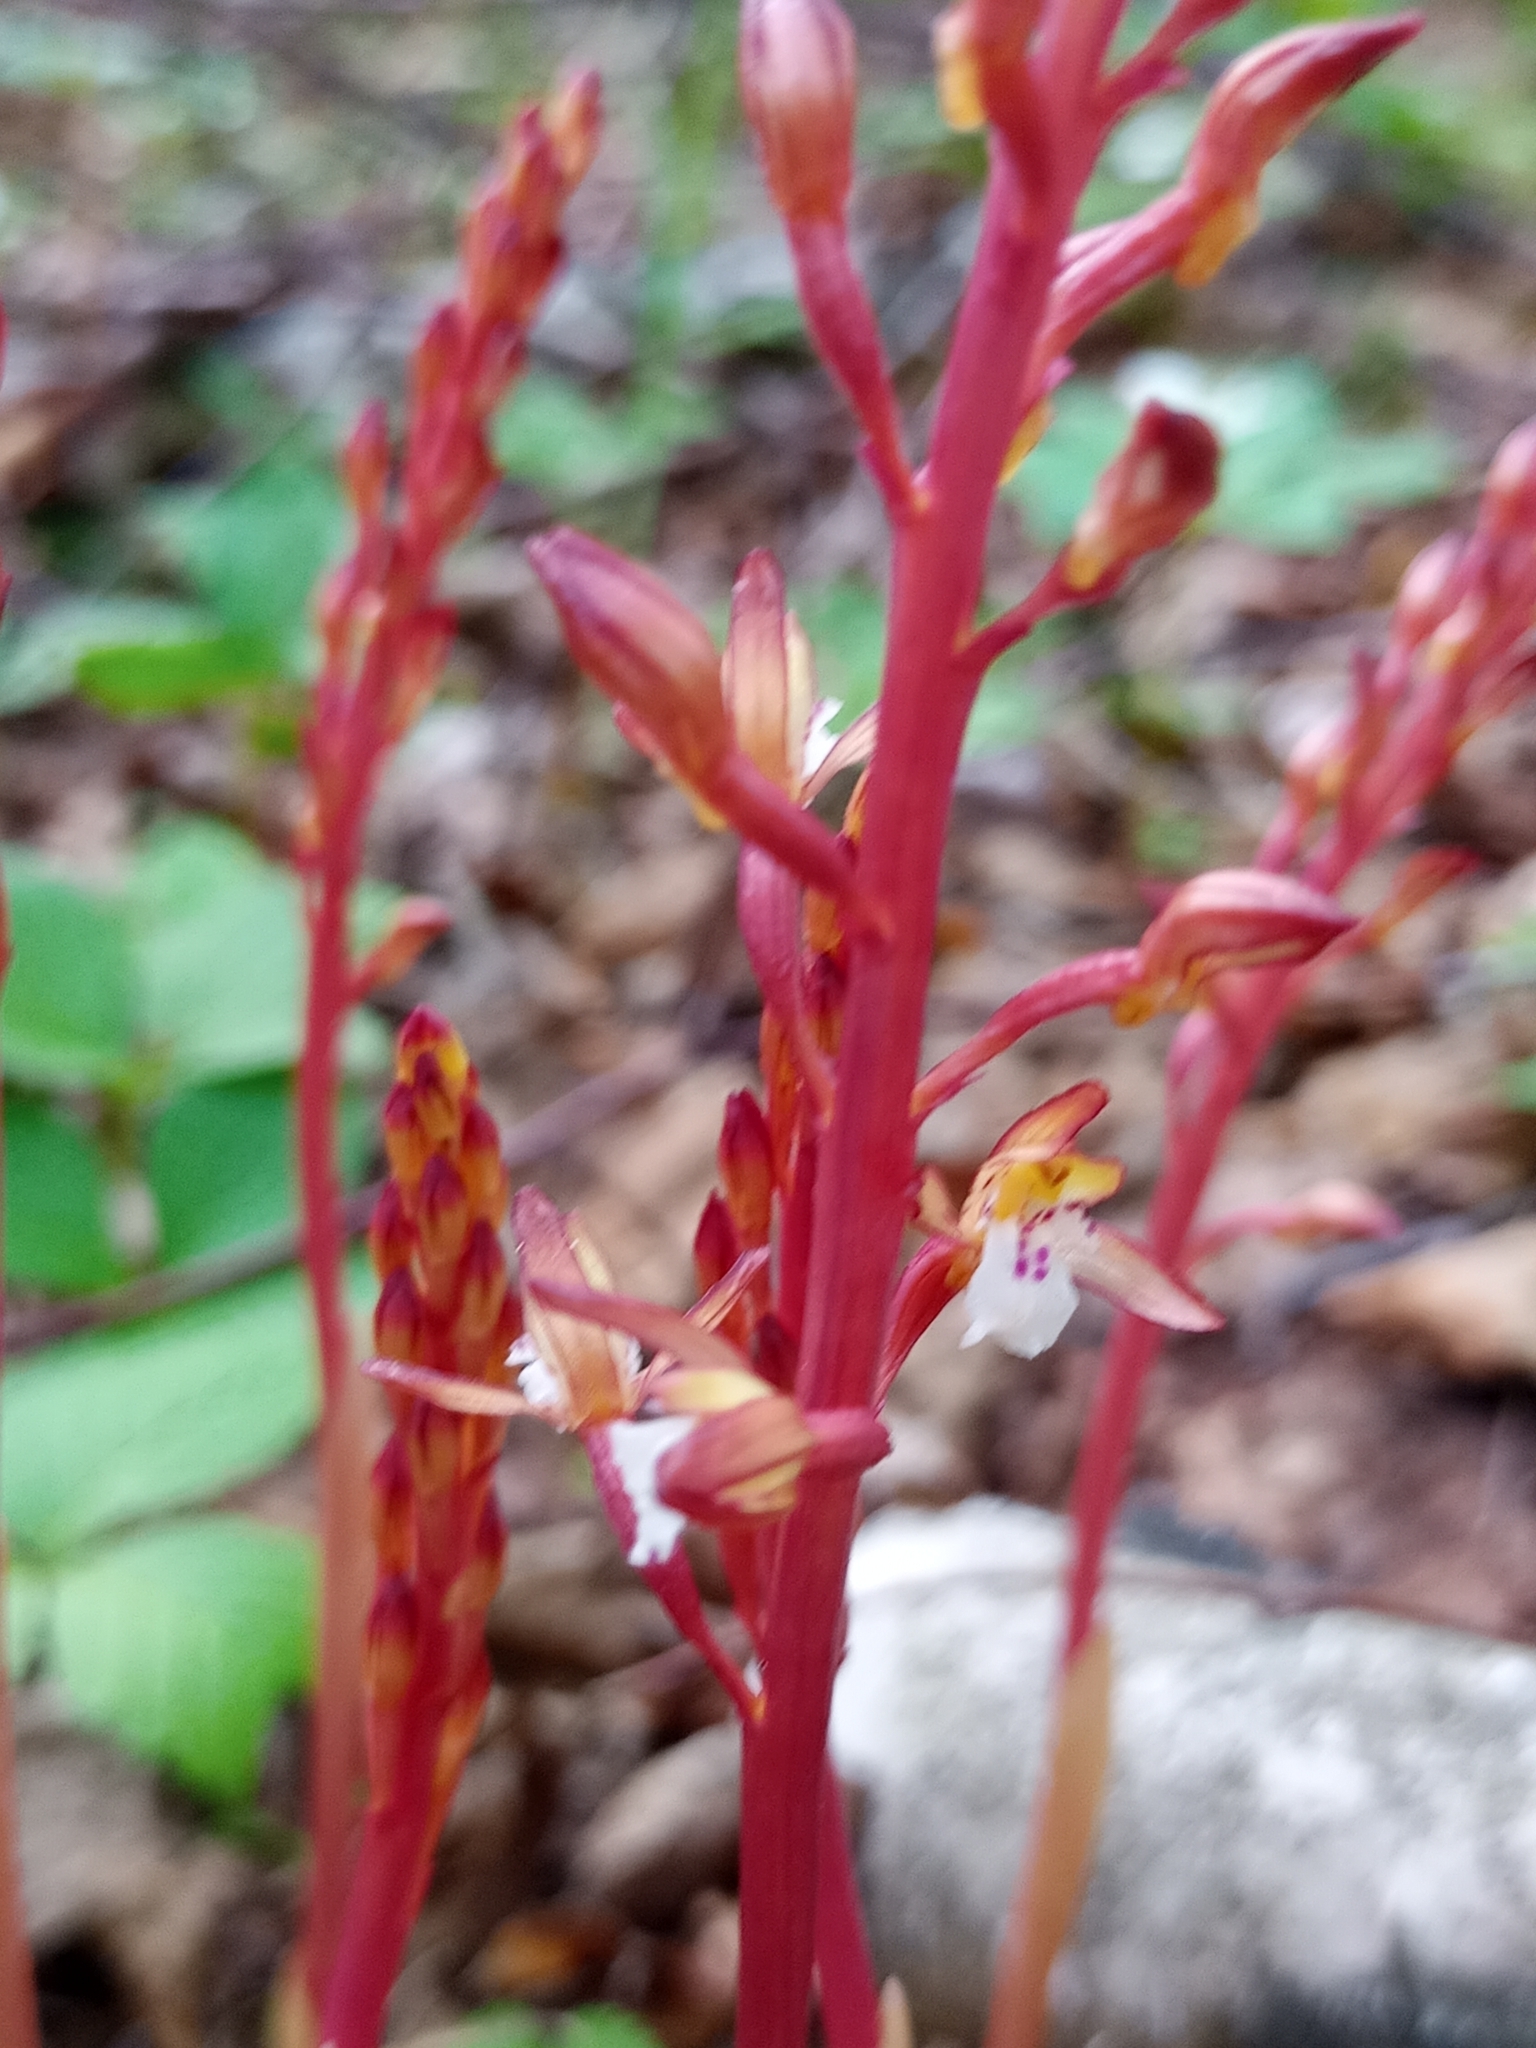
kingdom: Plantae
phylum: Tracheophyta
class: Liliopsida
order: Asparagales
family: Orchidaceae
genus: Corallorhiza
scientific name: Corallorhiza maculata
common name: Spotted coralroot
